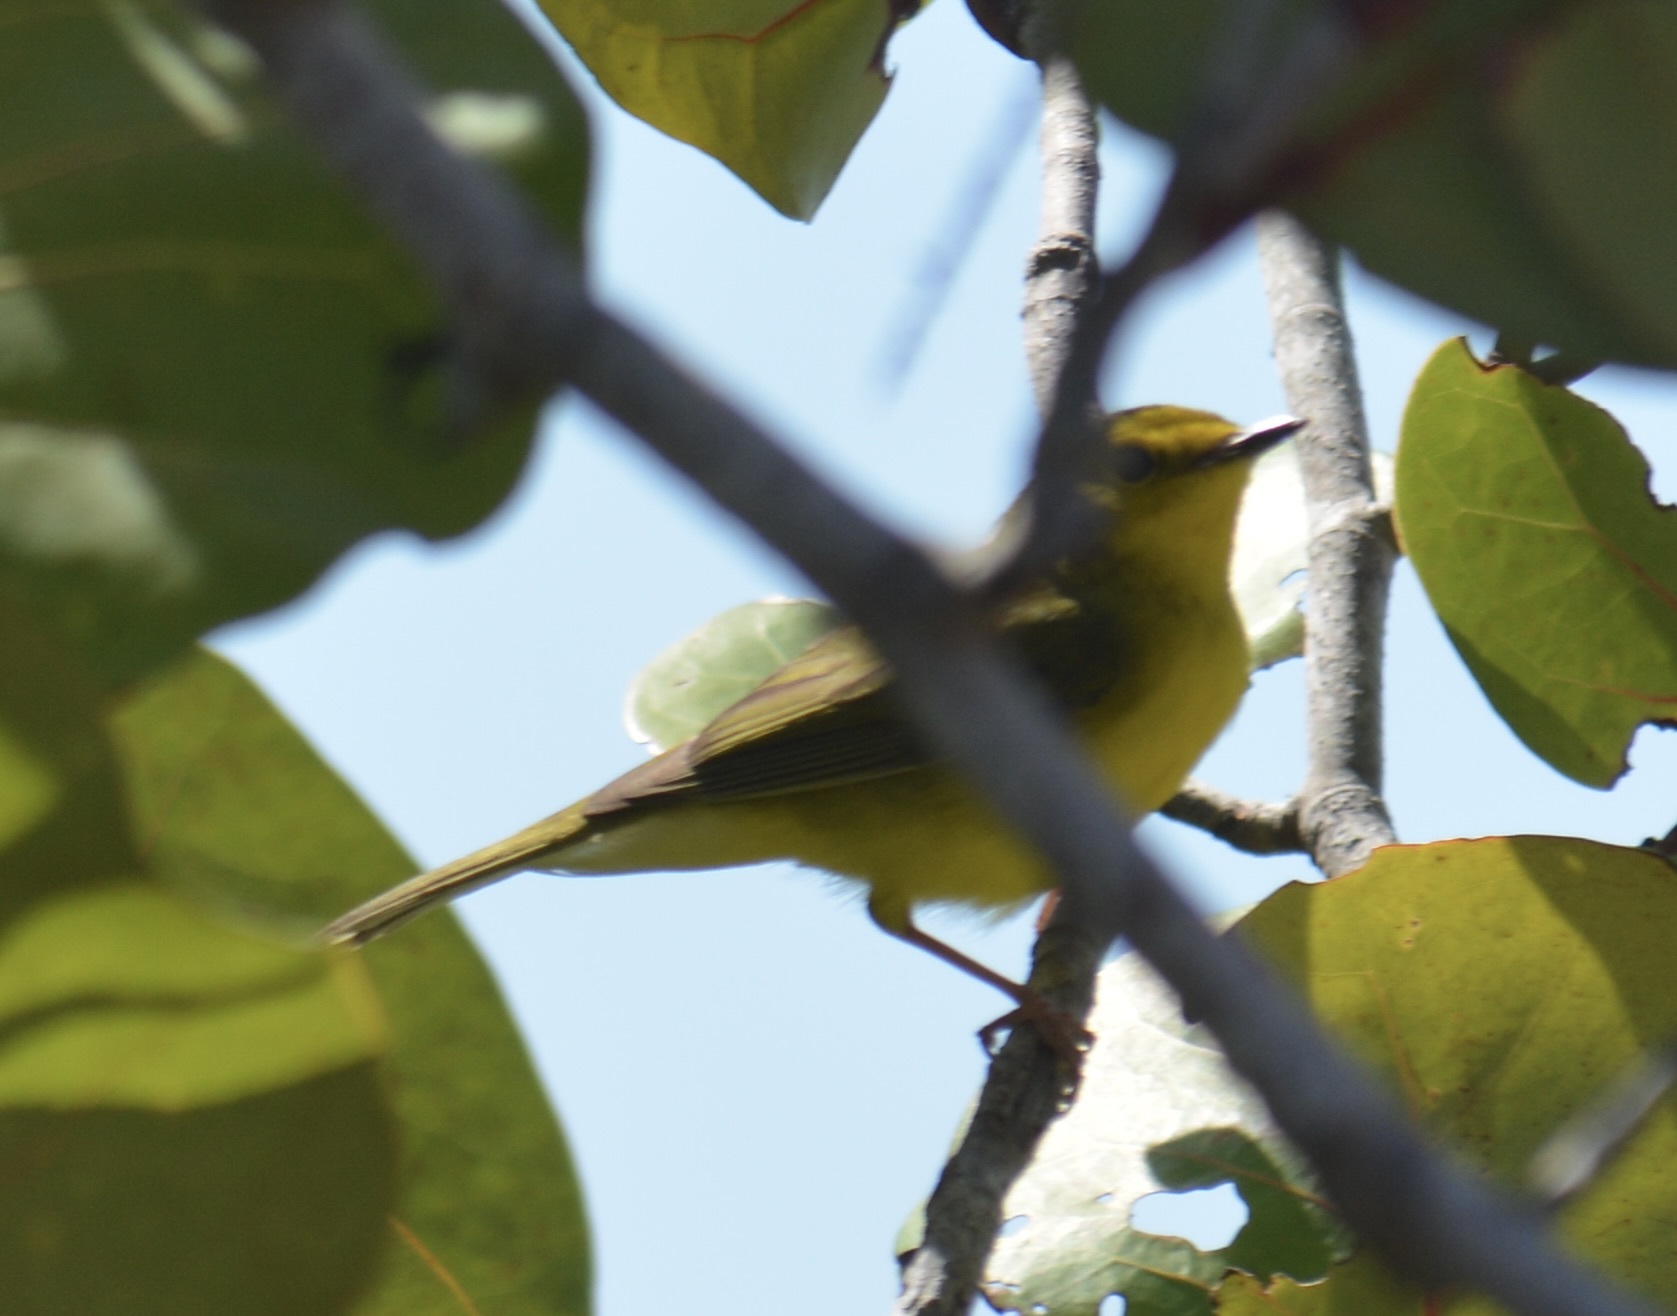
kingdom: Animalia
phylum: Chordata
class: Aves
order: Passeriformes
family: Parulidae
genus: Setophaga
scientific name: Setophaga citrina
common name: Hooded warbler
